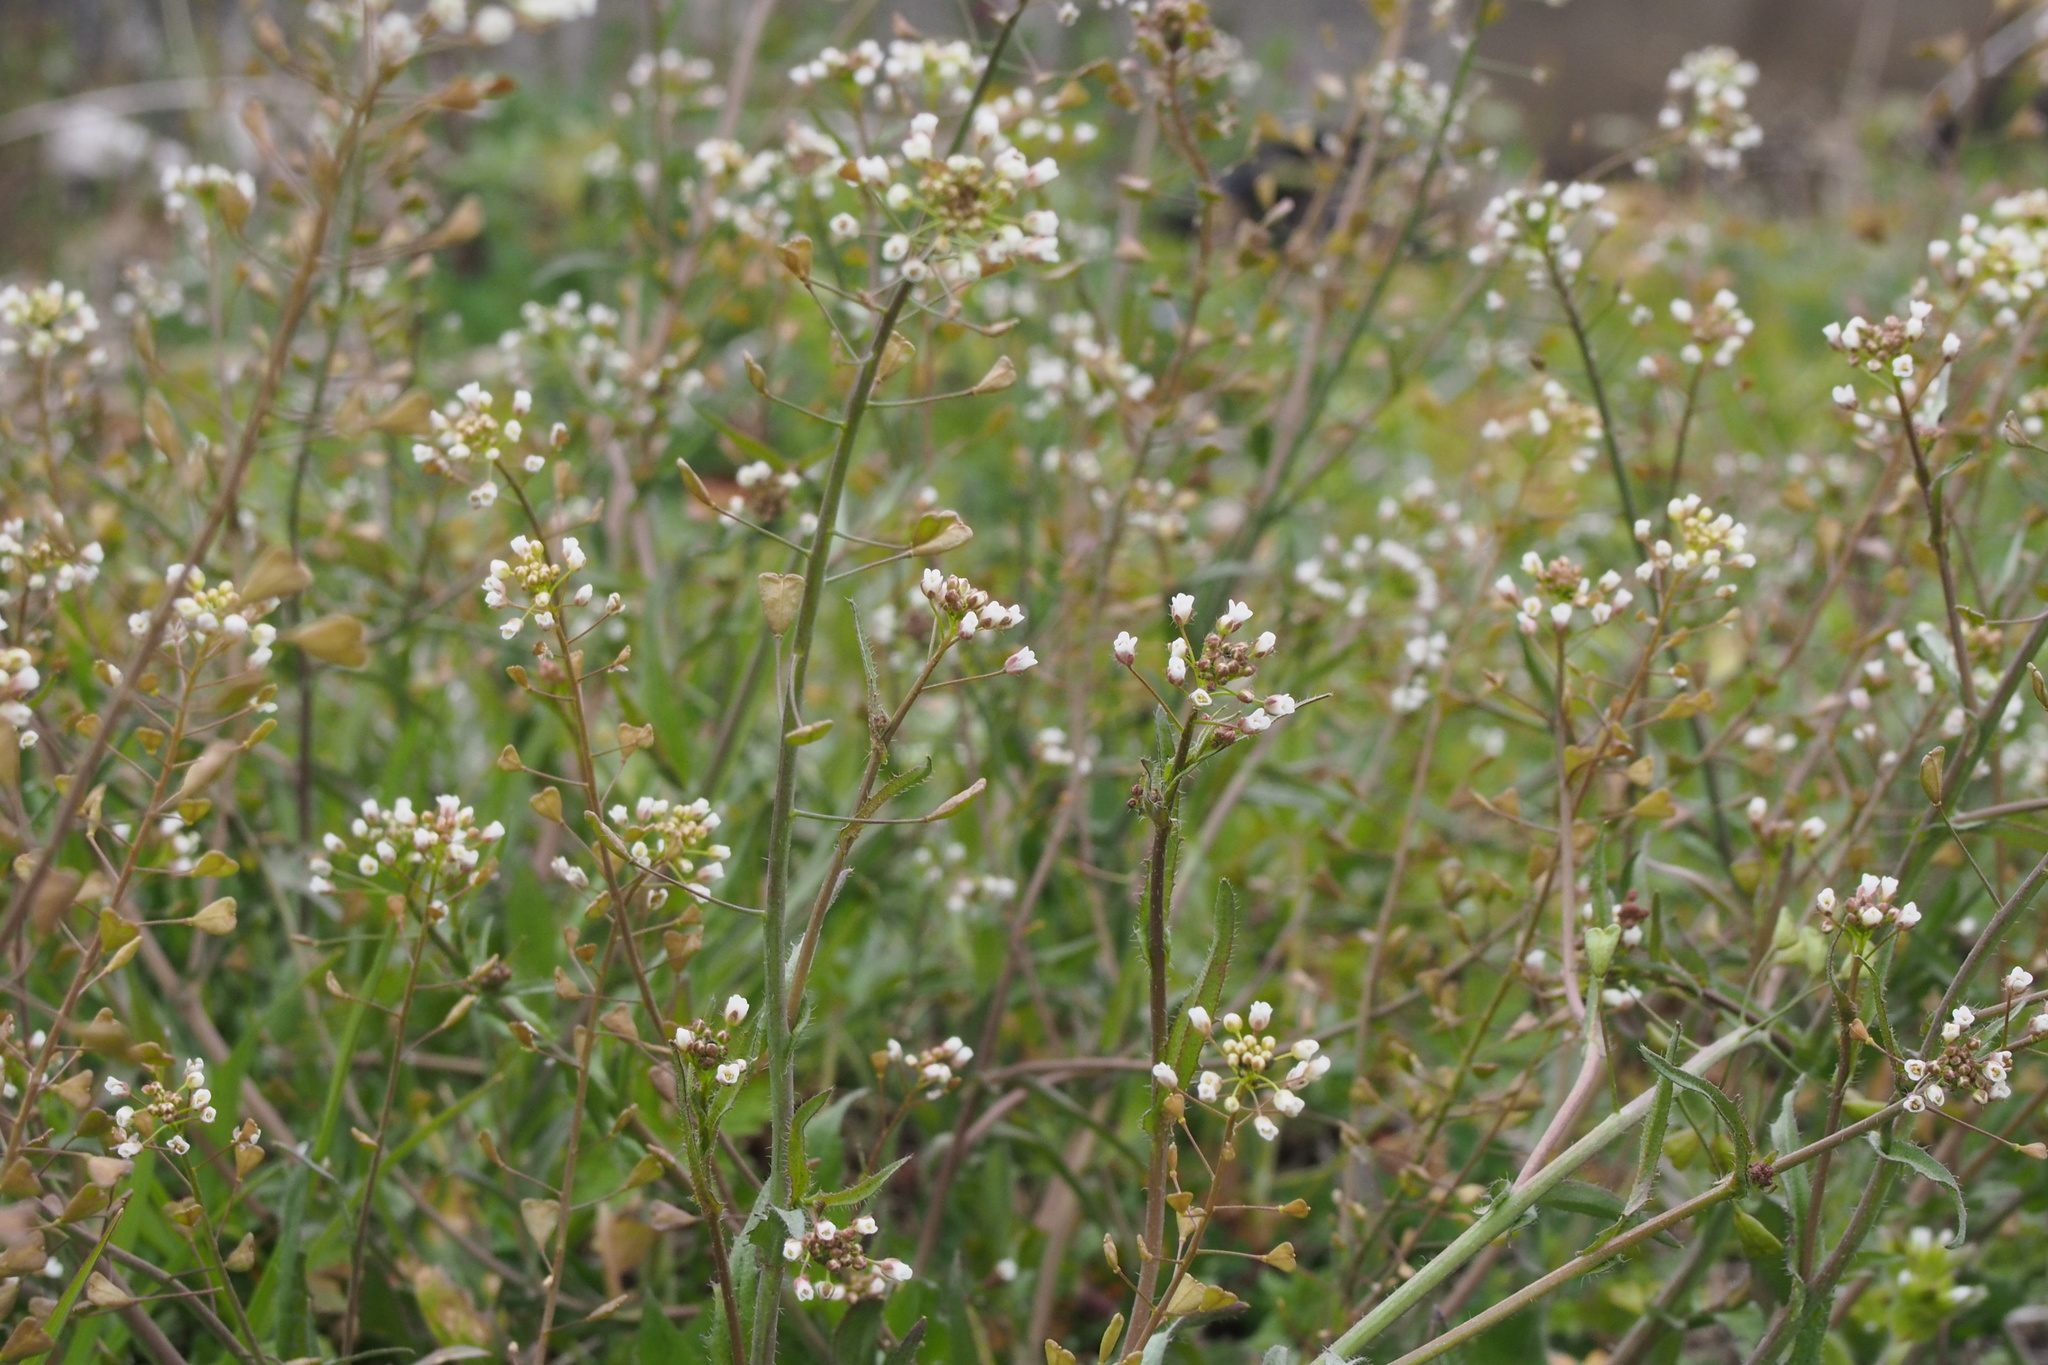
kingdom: Plantae
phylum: Tracheophyta
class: Magnoliopsida
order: Brassicales
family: Brassicaceae
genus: Capsella
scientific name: Capsella bursa-pastoris
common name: Shepherd's purse
